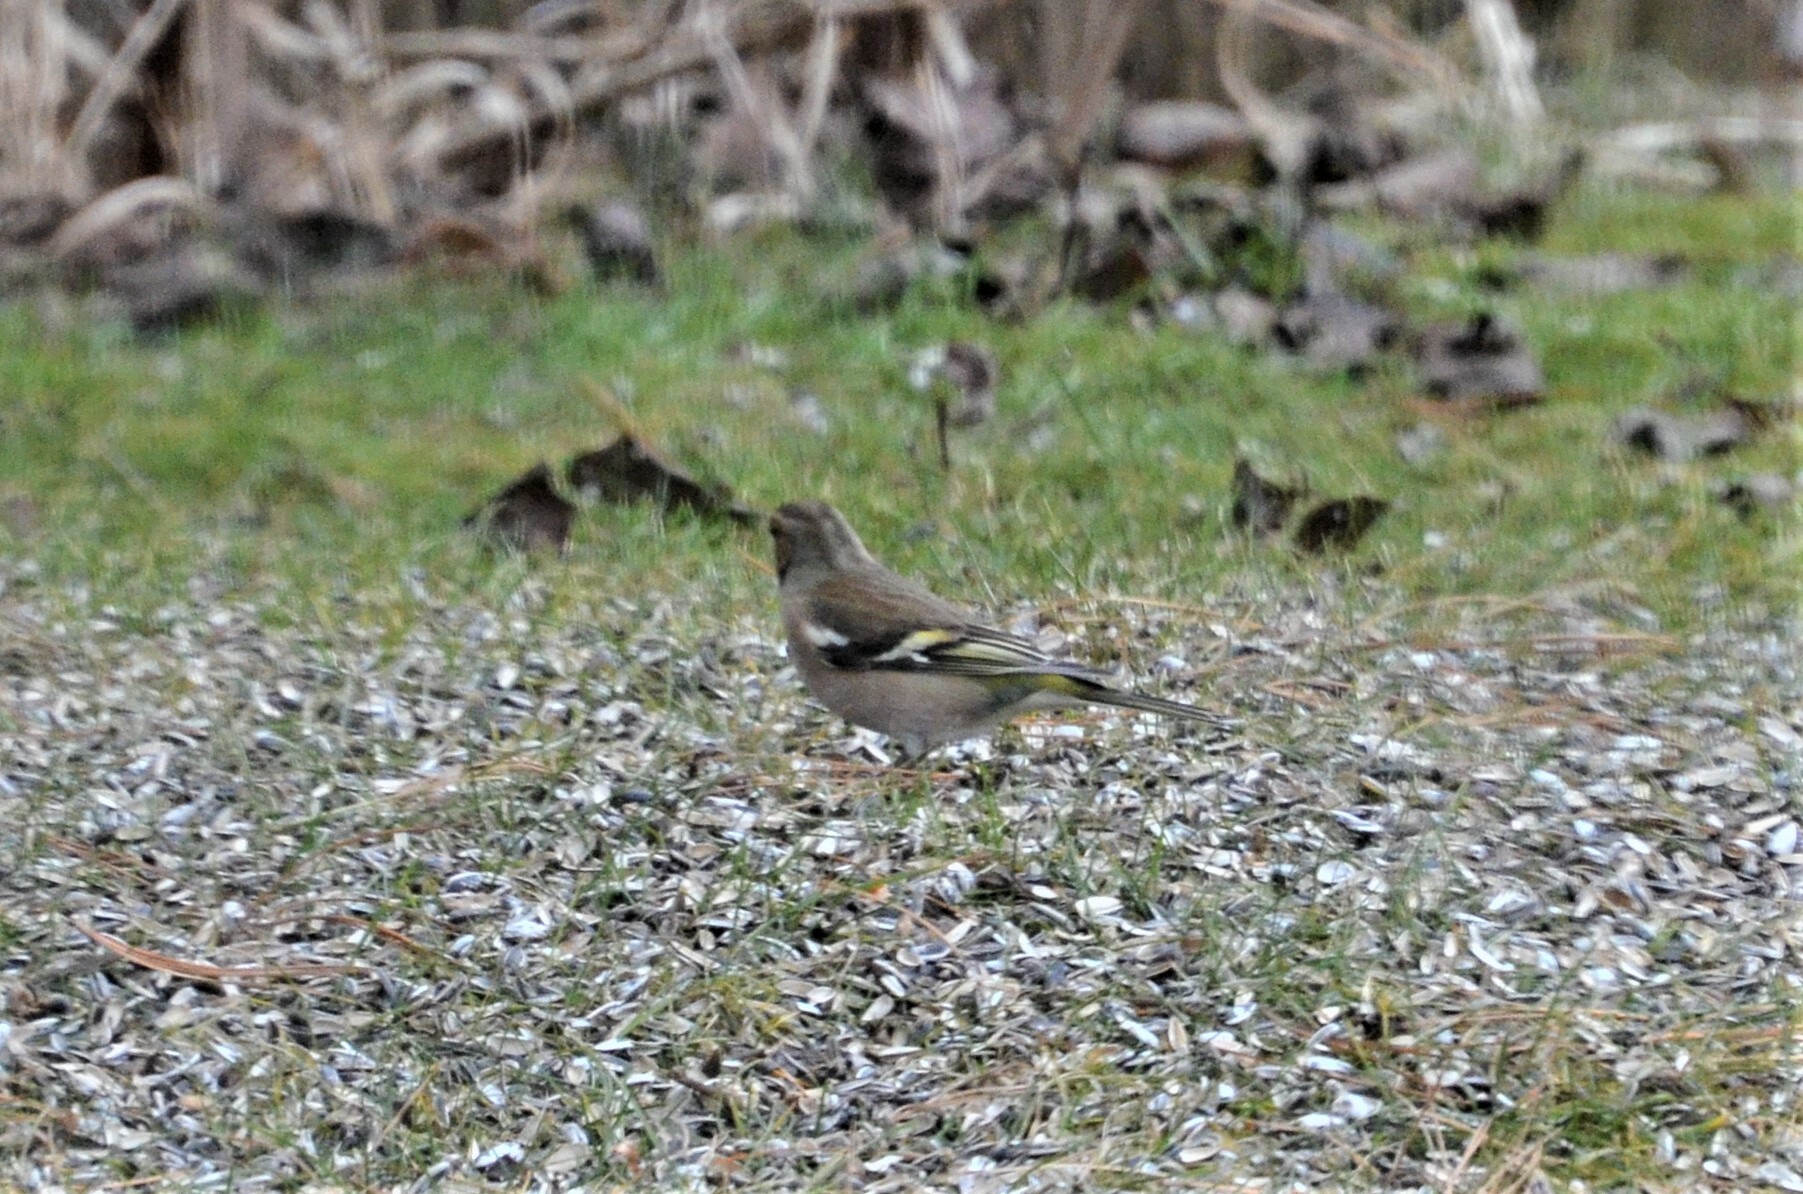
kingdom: Animalia
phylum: Chordata
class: Aves
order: Passeriformes
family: Fringillidae
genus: Fringilla
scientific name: Fringilla coelebs
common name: Common chaffinch
